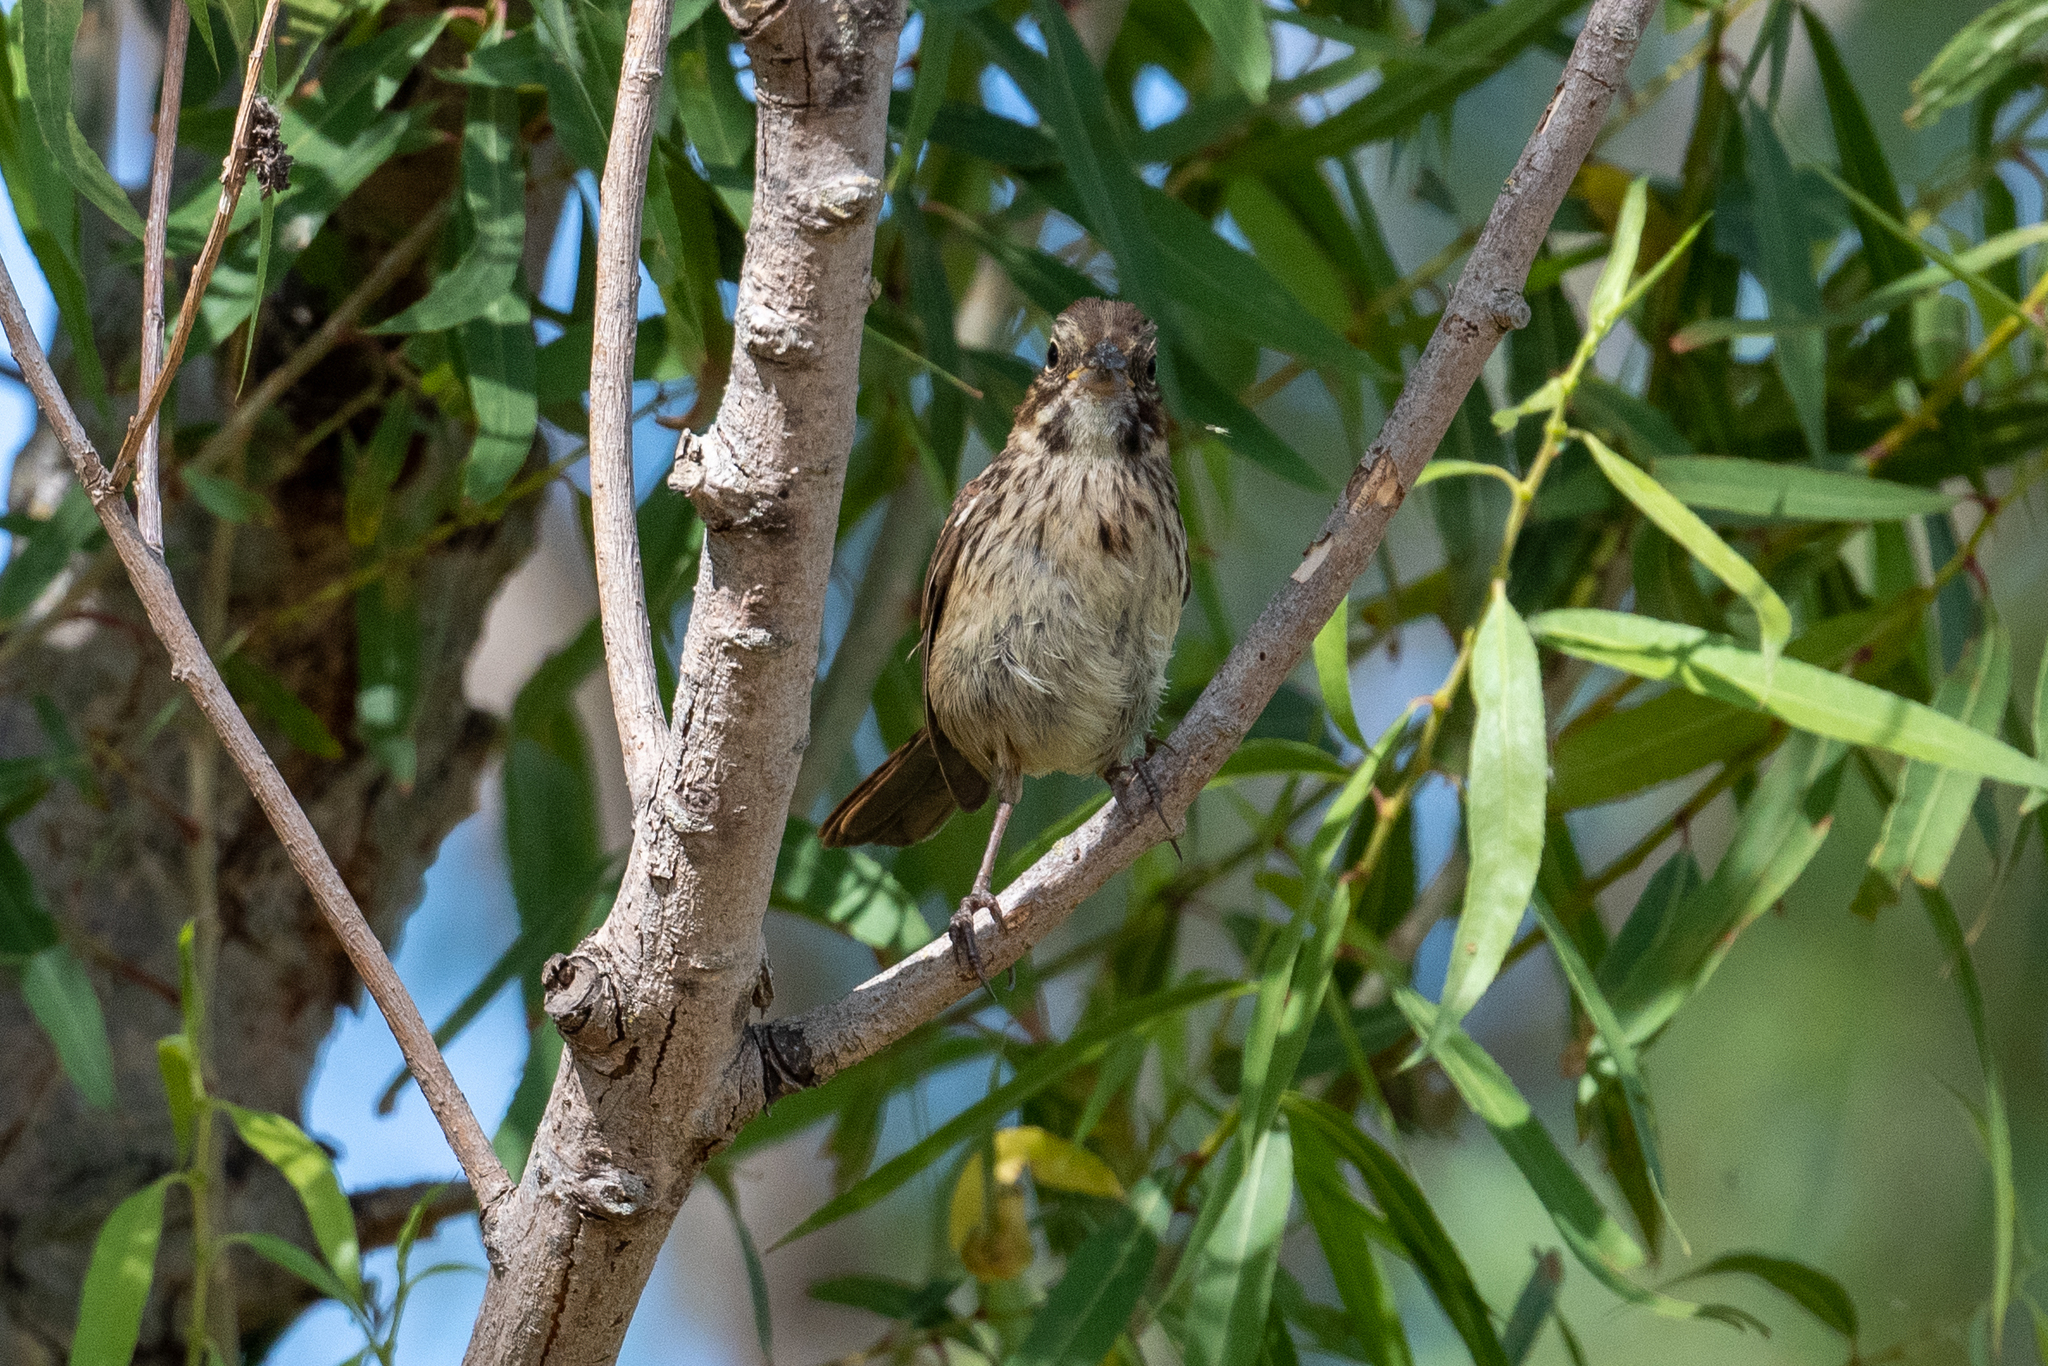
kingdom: Animalia
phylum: Chordata
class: Aves
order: Passeriformes
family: Passerellidae
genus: Melospiza
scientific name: Melospiza melodia
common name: Song sparrow
